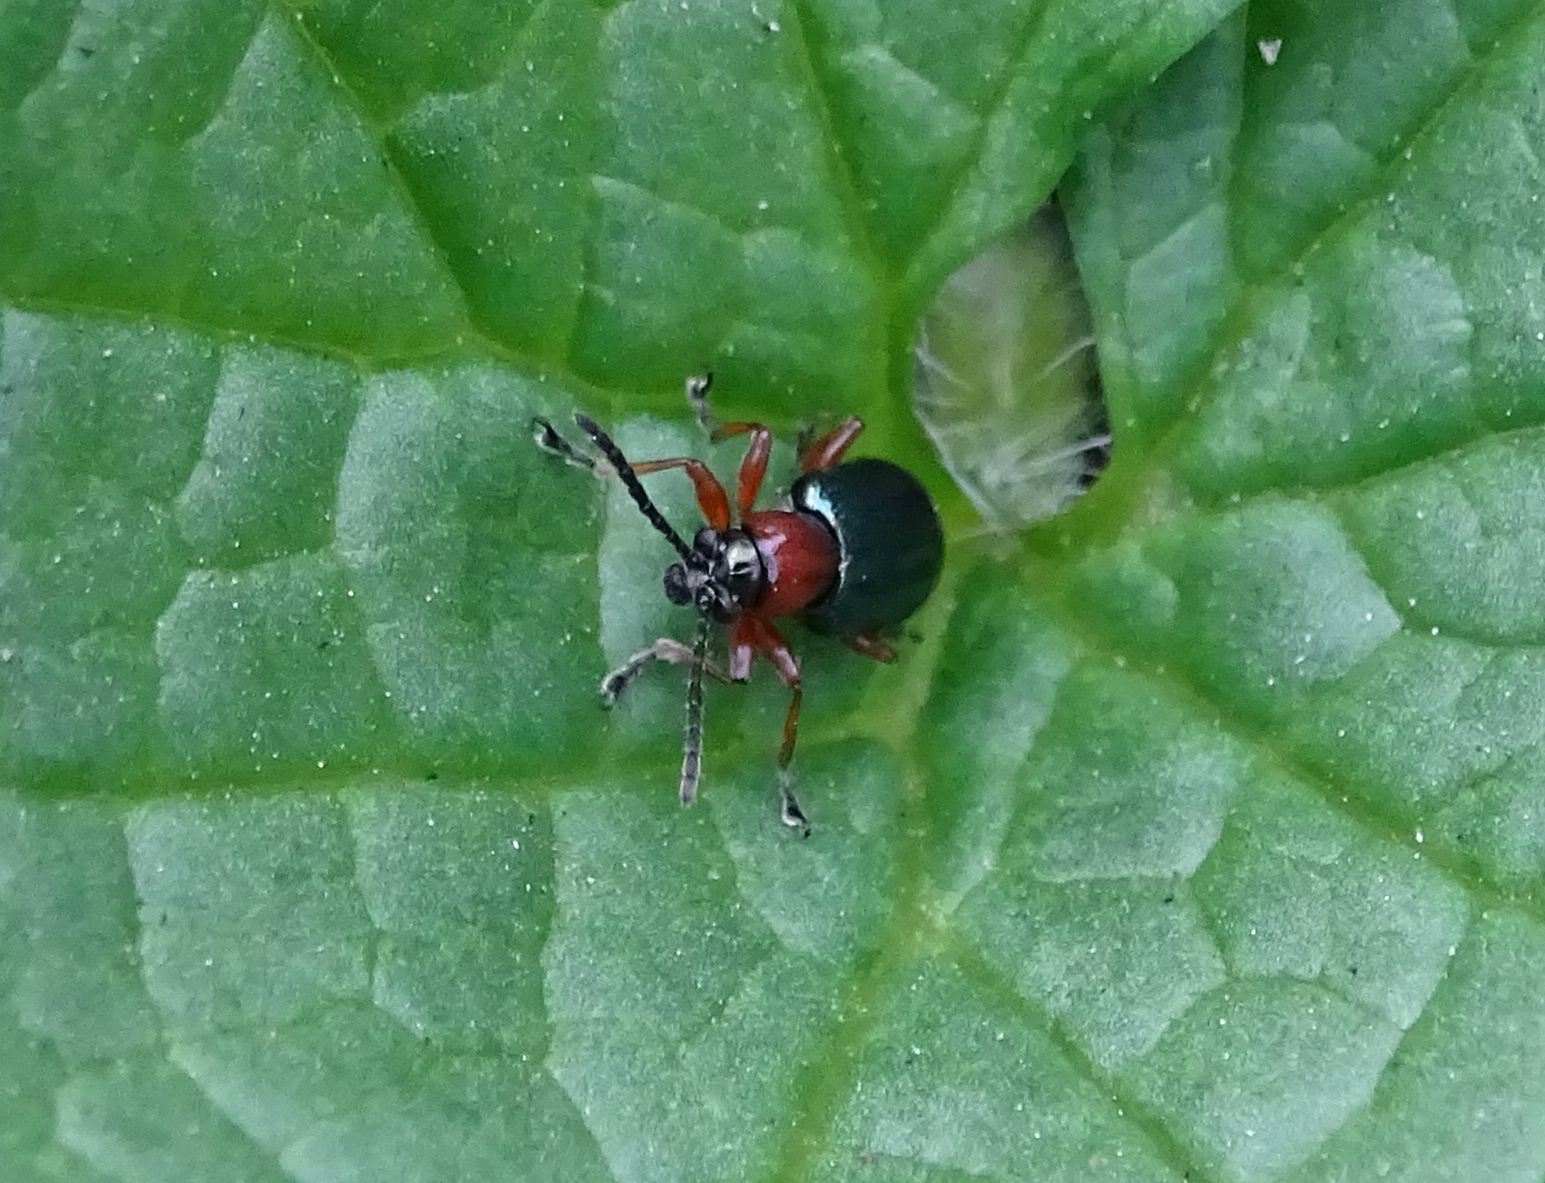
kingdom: Animalia
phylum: Arthropoda
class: Insecta
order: Coleoptera
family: Chrysomelidae
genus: Oulema
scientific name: Oulema
